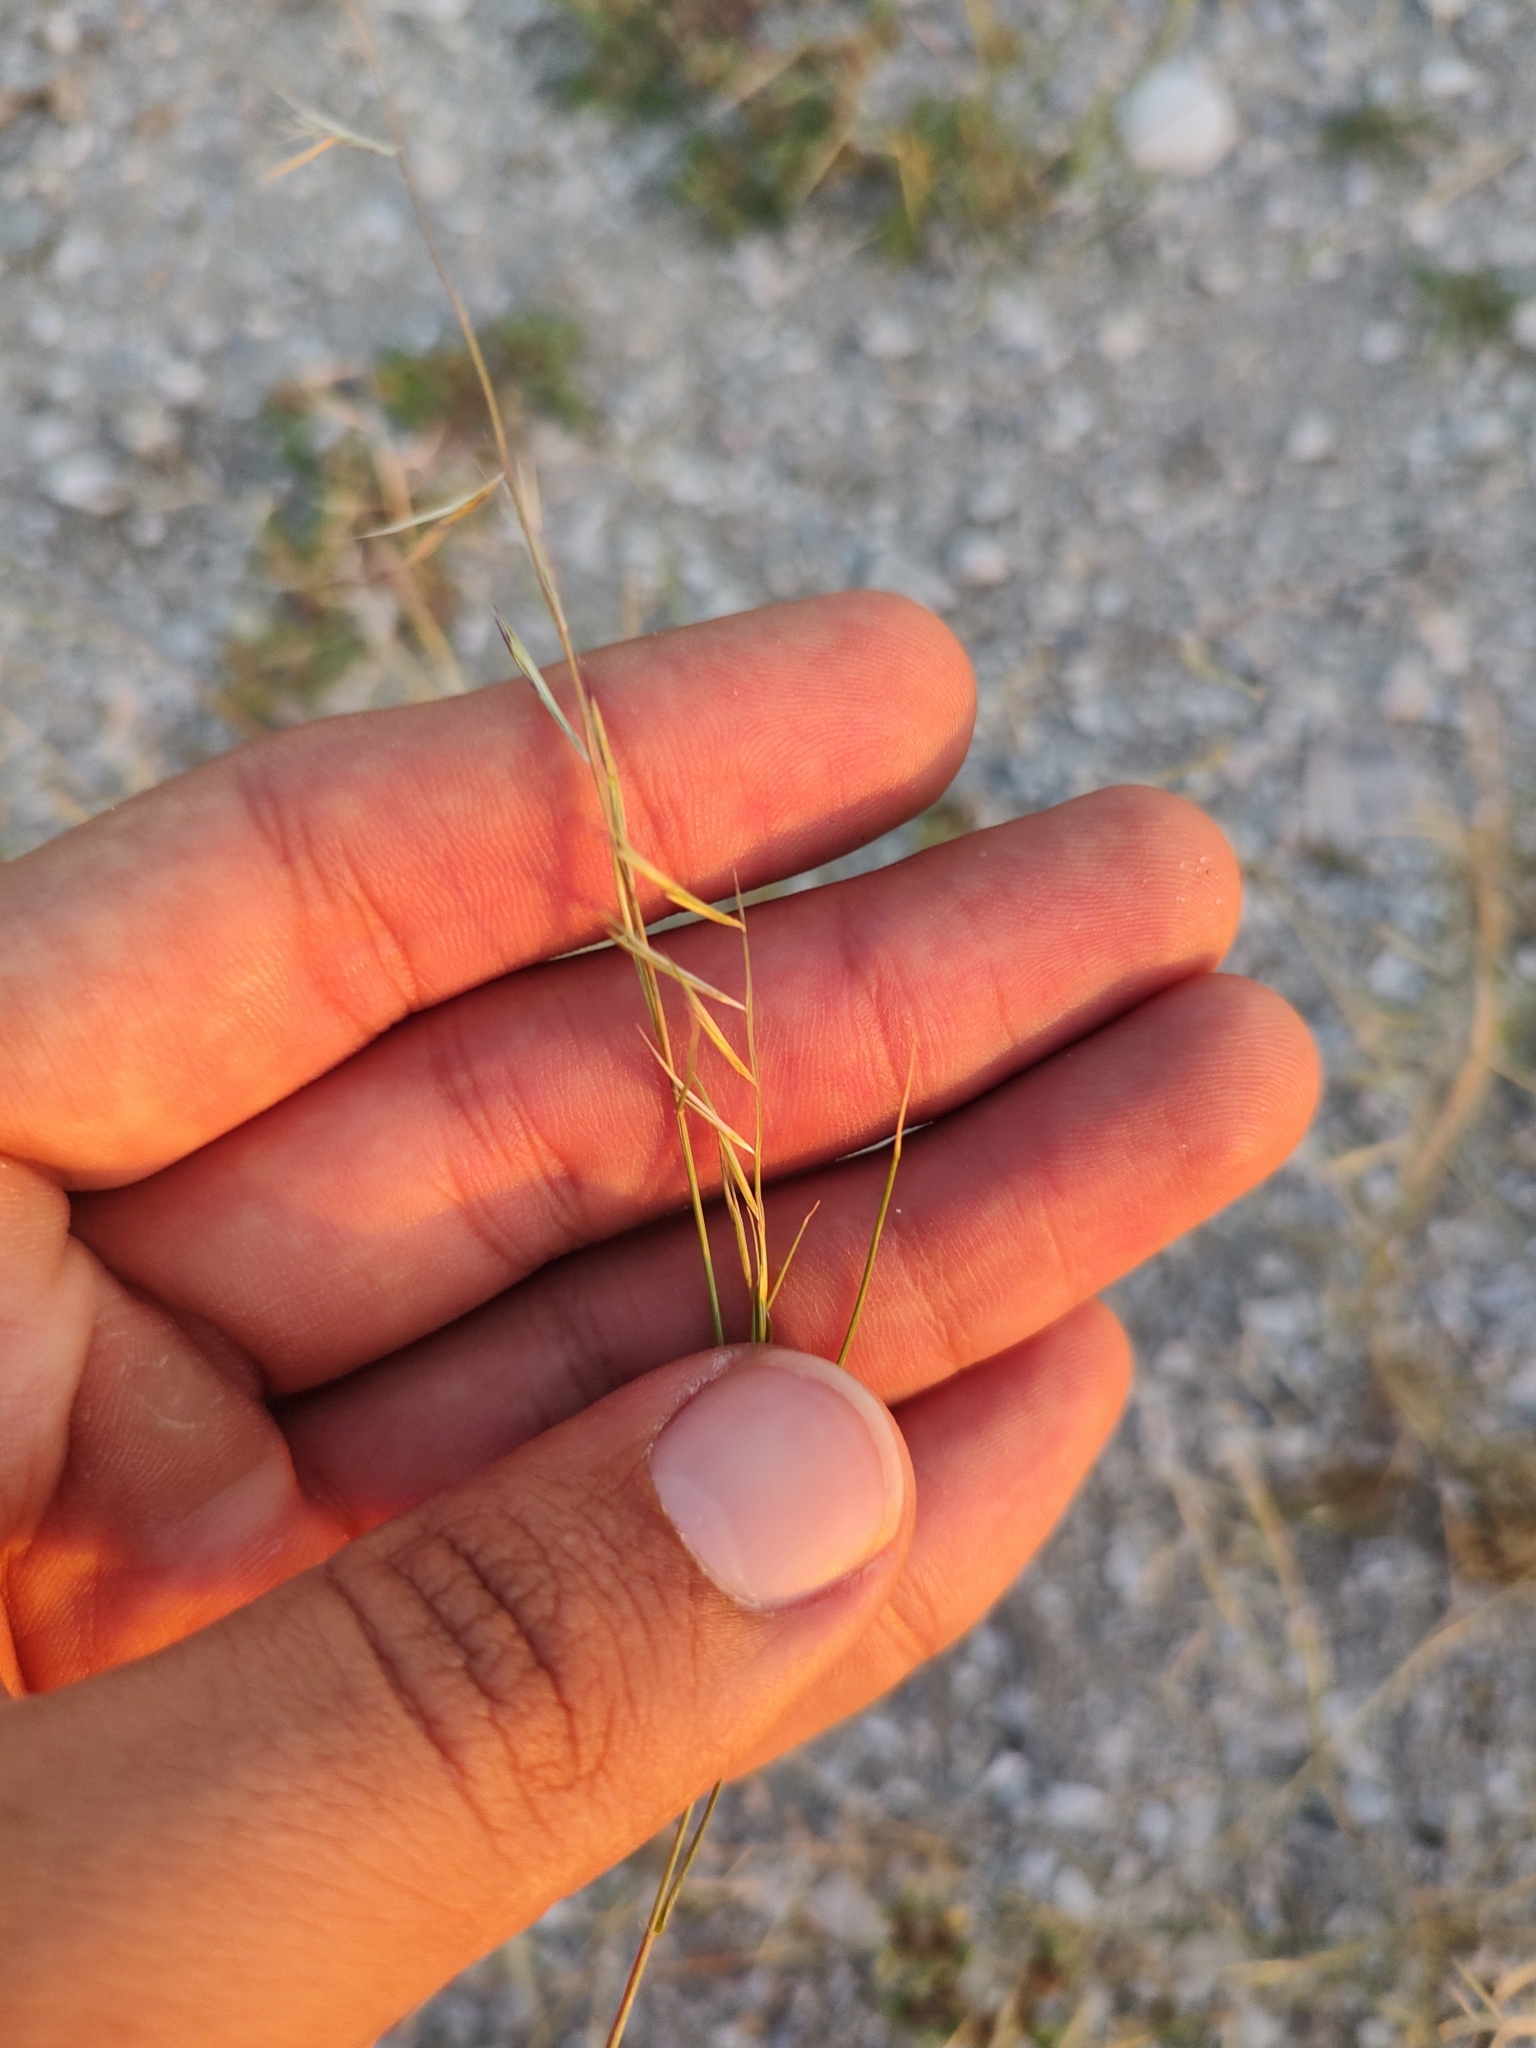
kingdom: Plantae
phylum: Tracheophyta
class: Liliopsida
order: Poales
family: Poaceae
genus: Bouteloua
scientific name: Bouteloua aristidoides
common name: Needle grama
